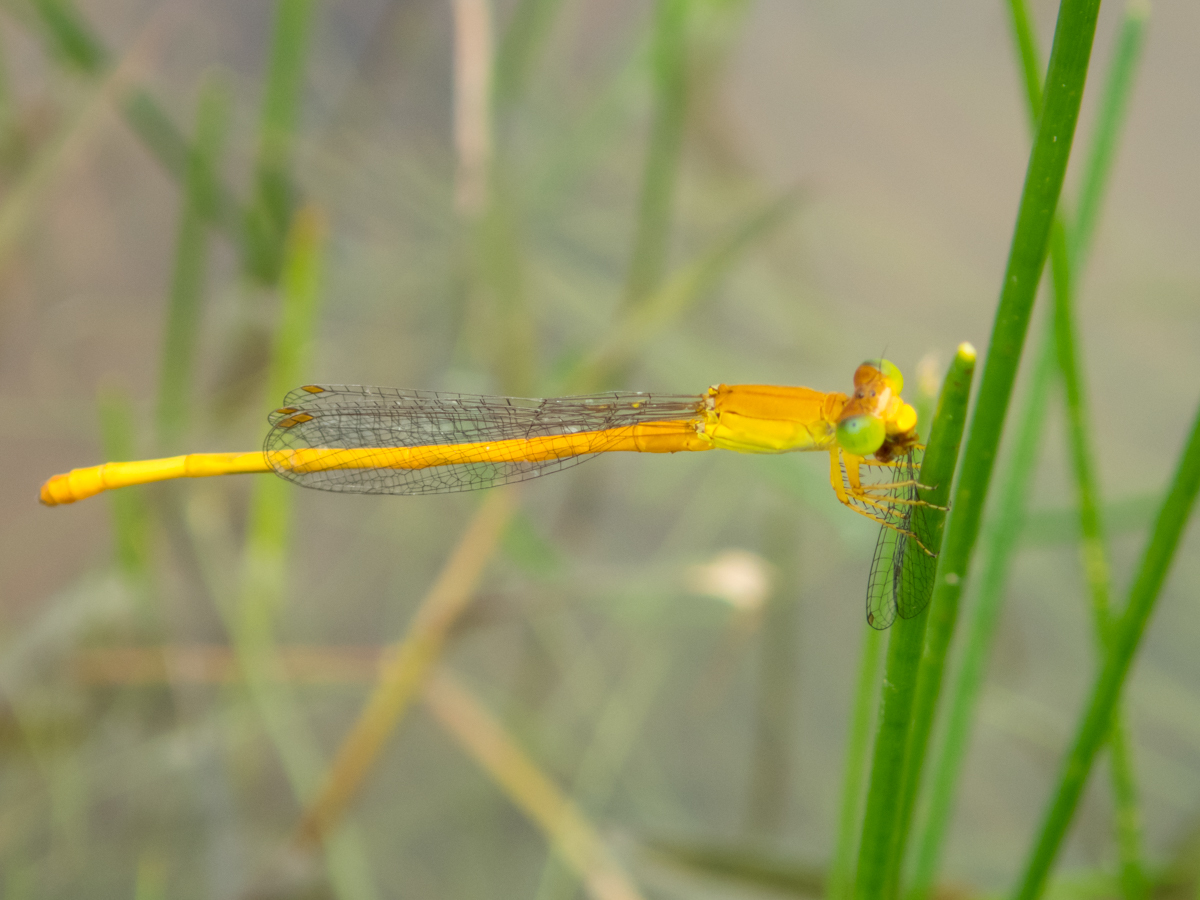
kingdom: Animalia
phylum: Arthropoda
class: Insecta
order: Odonata
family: Coenagrionidae
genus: Ceriagrion
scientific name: Ceriagrion calamineum
